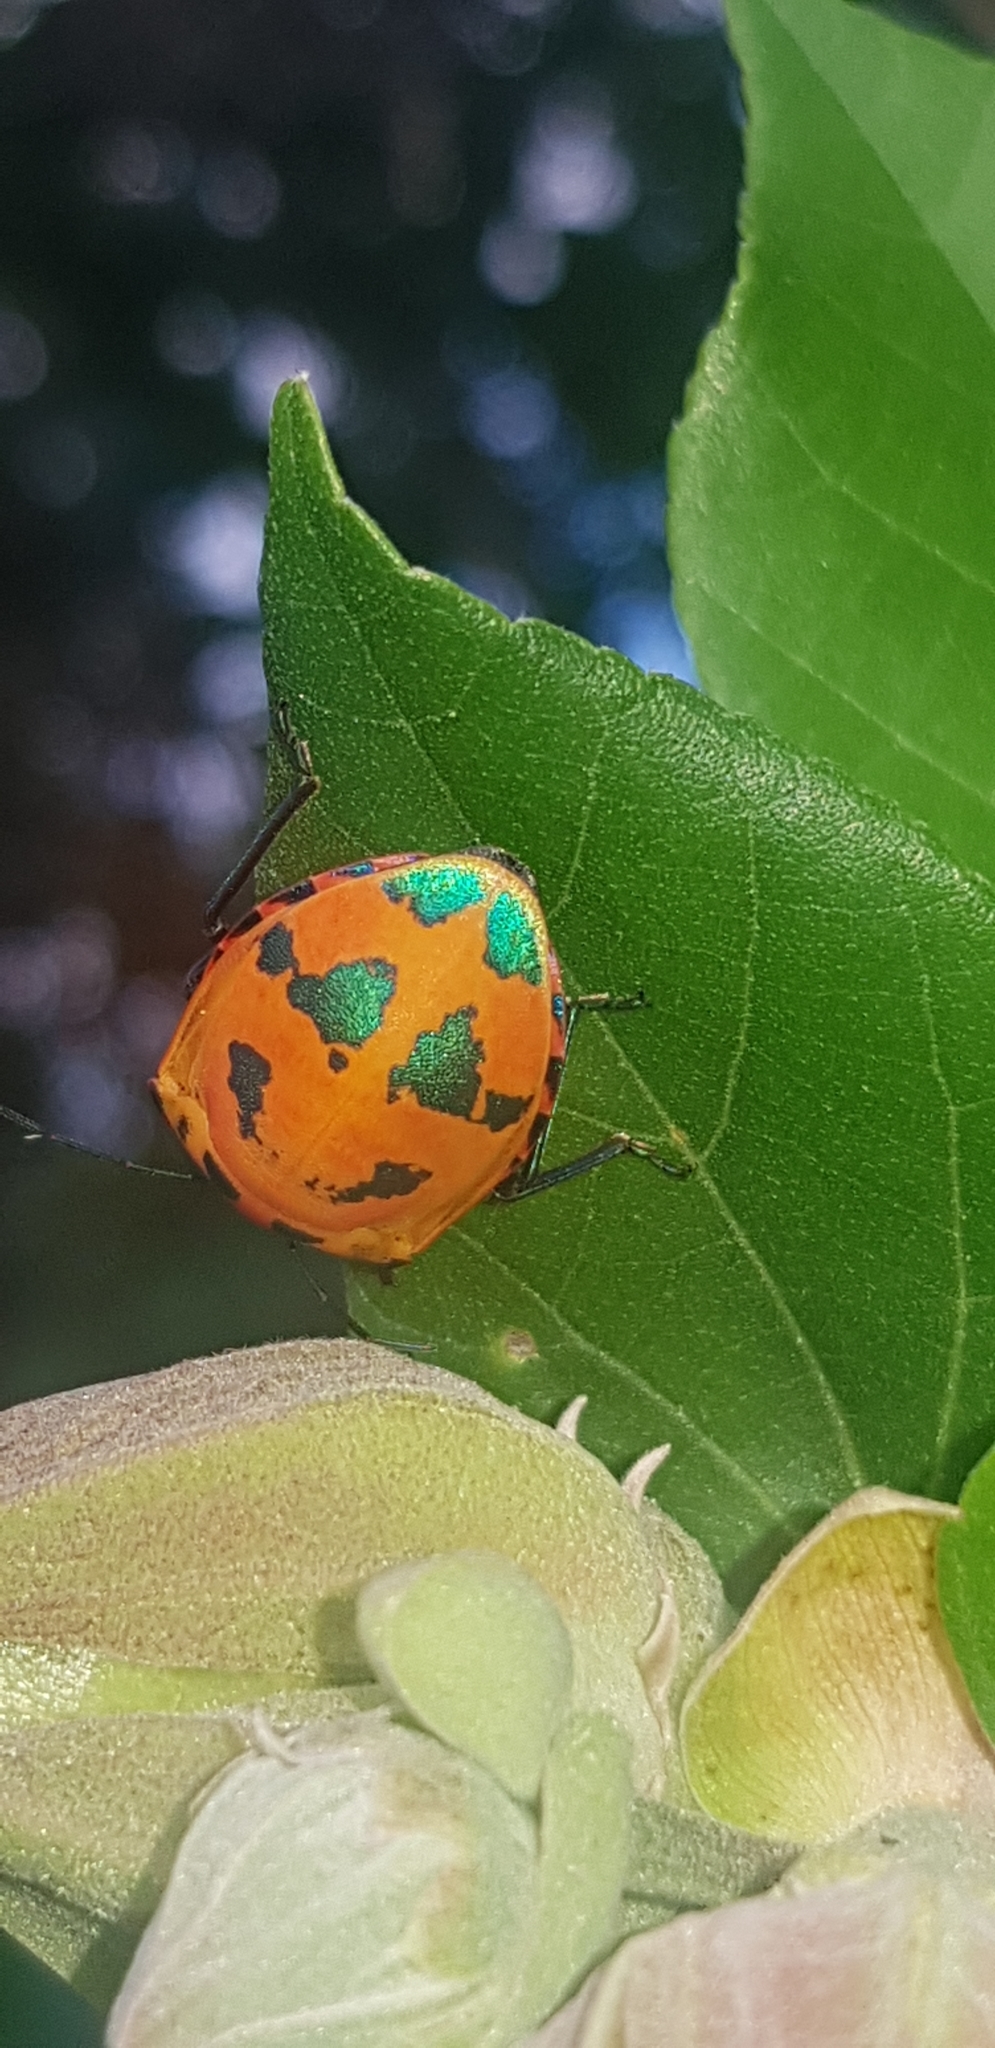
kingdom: Animalia
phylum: Arthropoda
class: Insecta
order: Hemiptera
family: Scutelleridae
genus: Tectocoris
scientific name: Tectocoris diophthalmus
